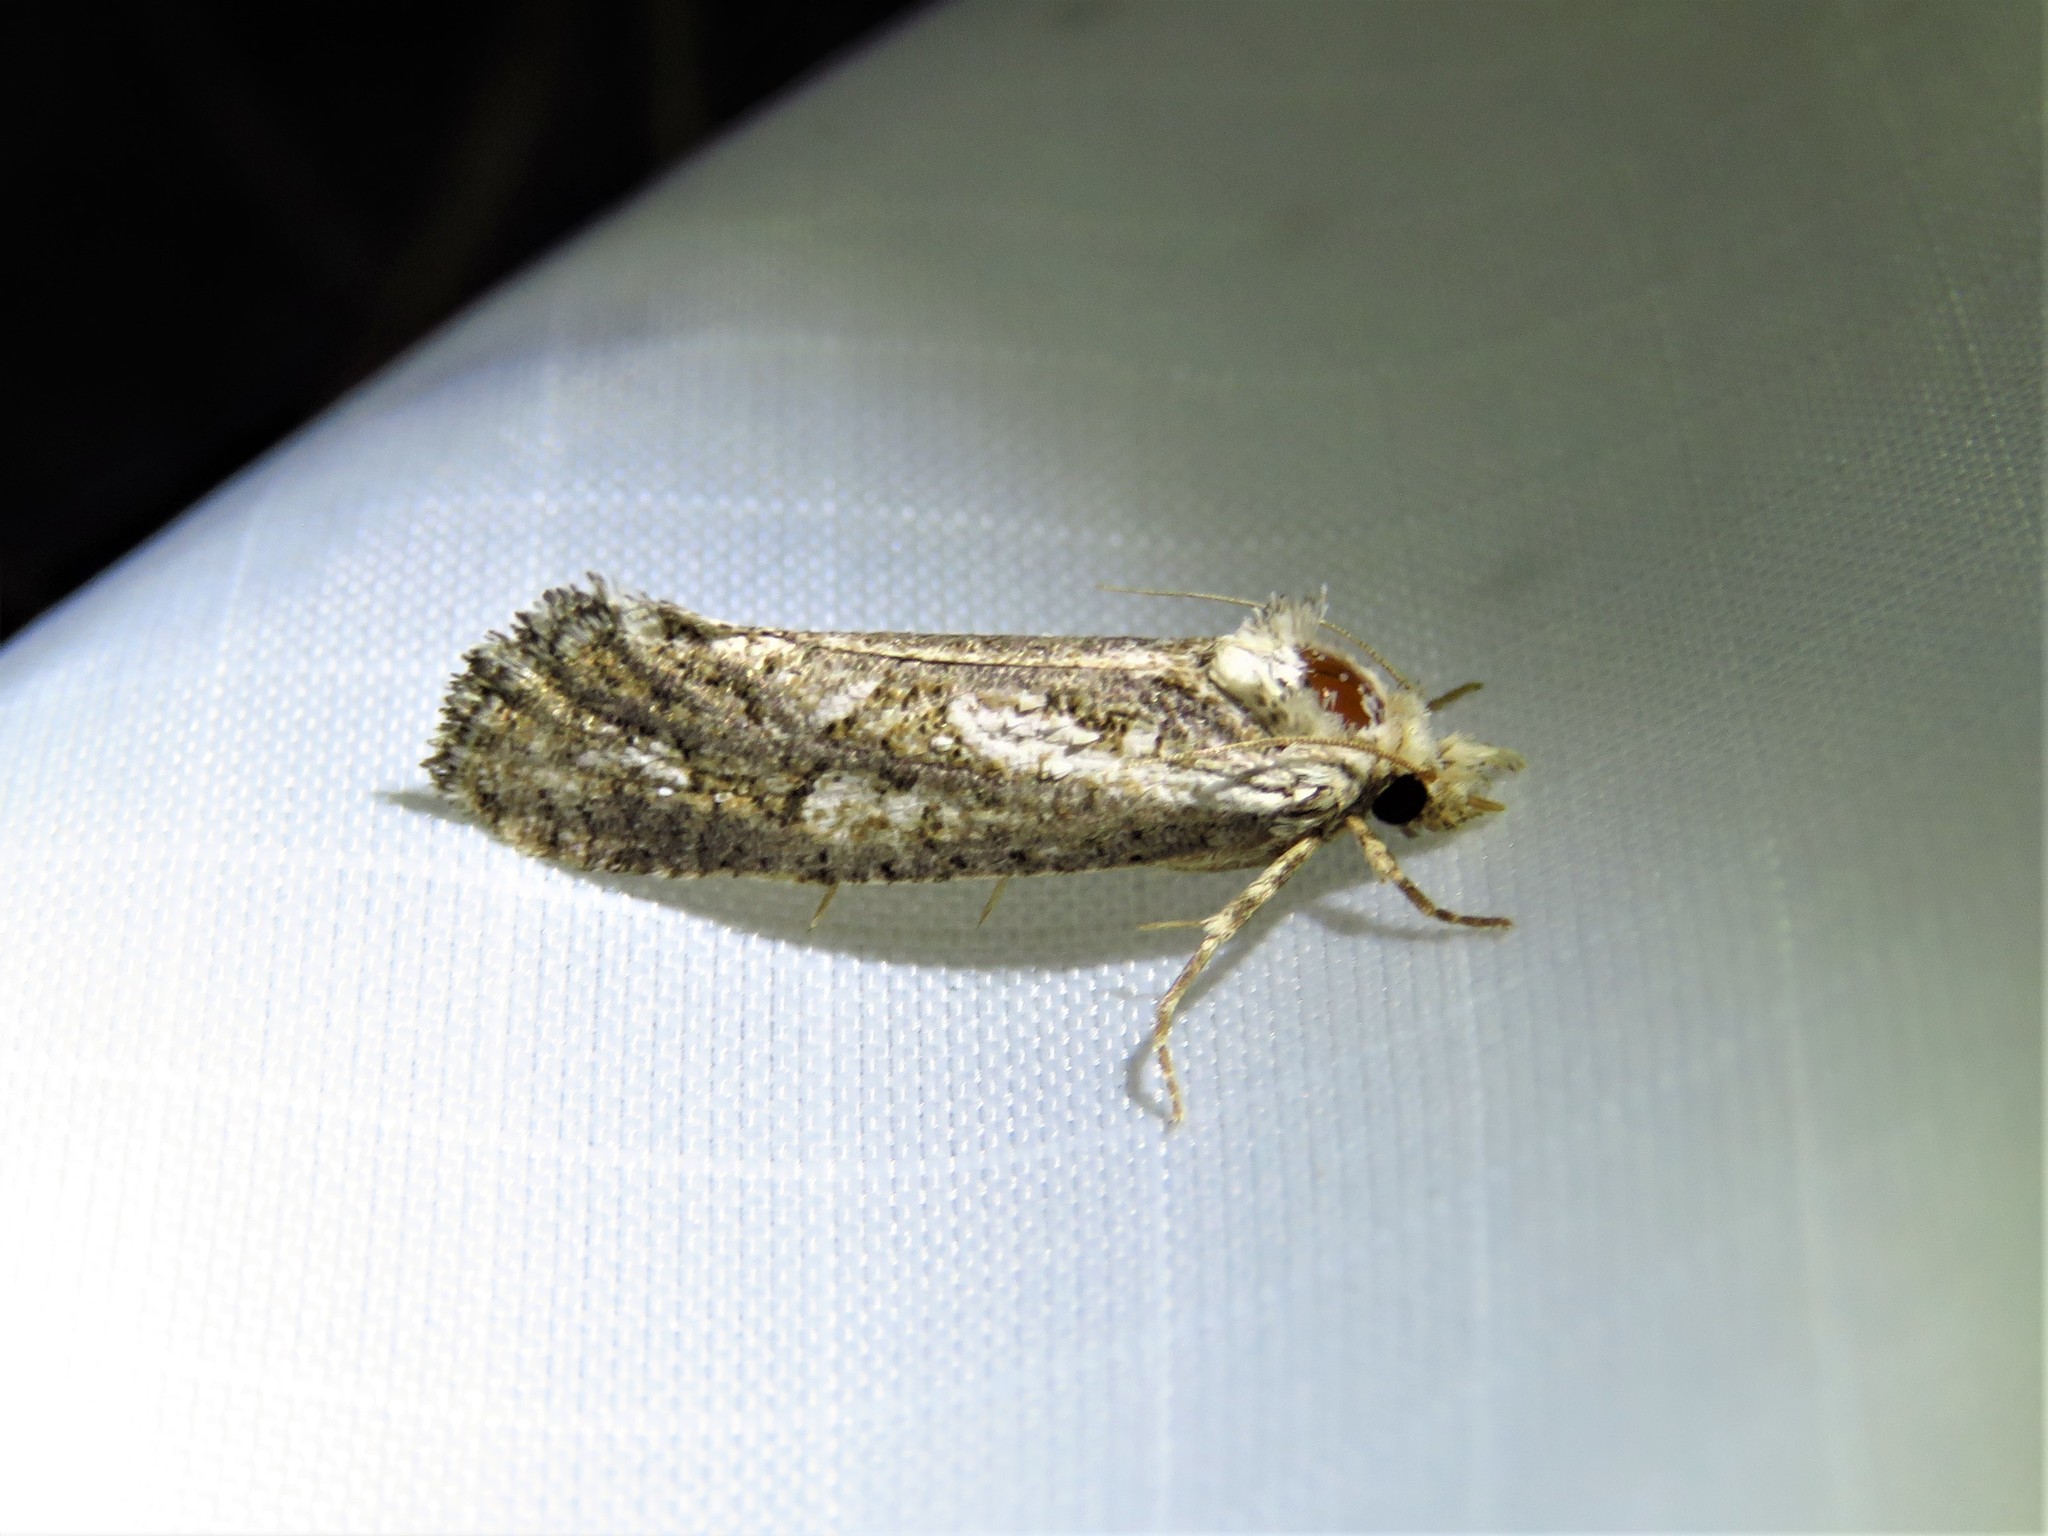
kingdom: Animalia
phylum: Arthropoda
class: Insecta
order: Lepidoptera
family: Tineidae
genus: Acrolophus
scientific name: Acrolophus variabilis
